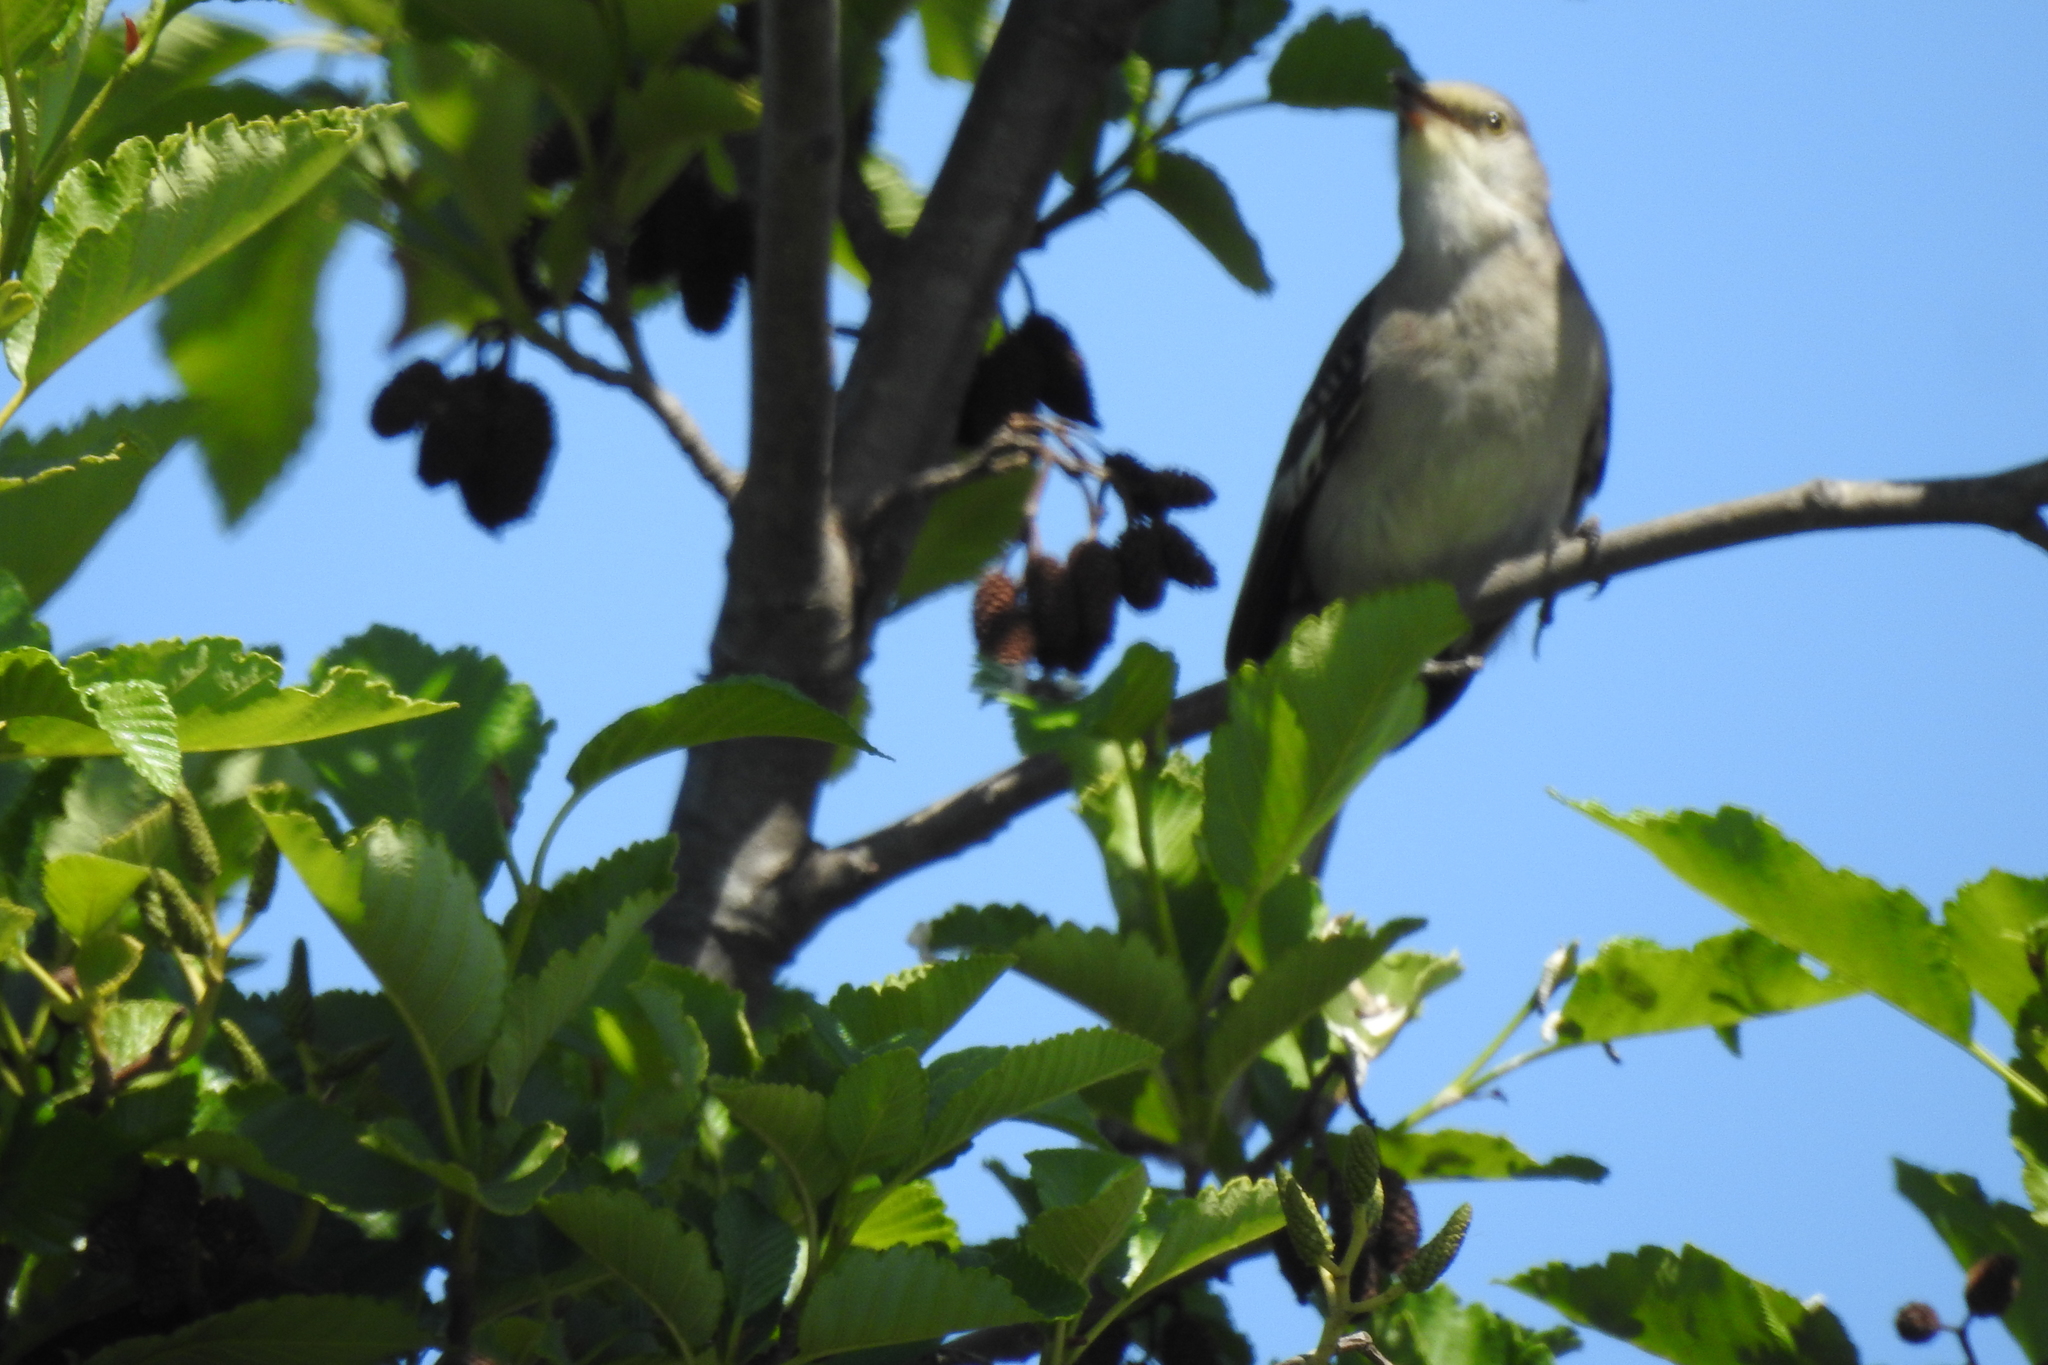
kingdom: Animalia
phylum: Chordata
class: Aves
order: Passeriformes
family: Mimidae
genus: Mimus
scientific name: Mimus polyglottos
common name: Northern mockingbird
